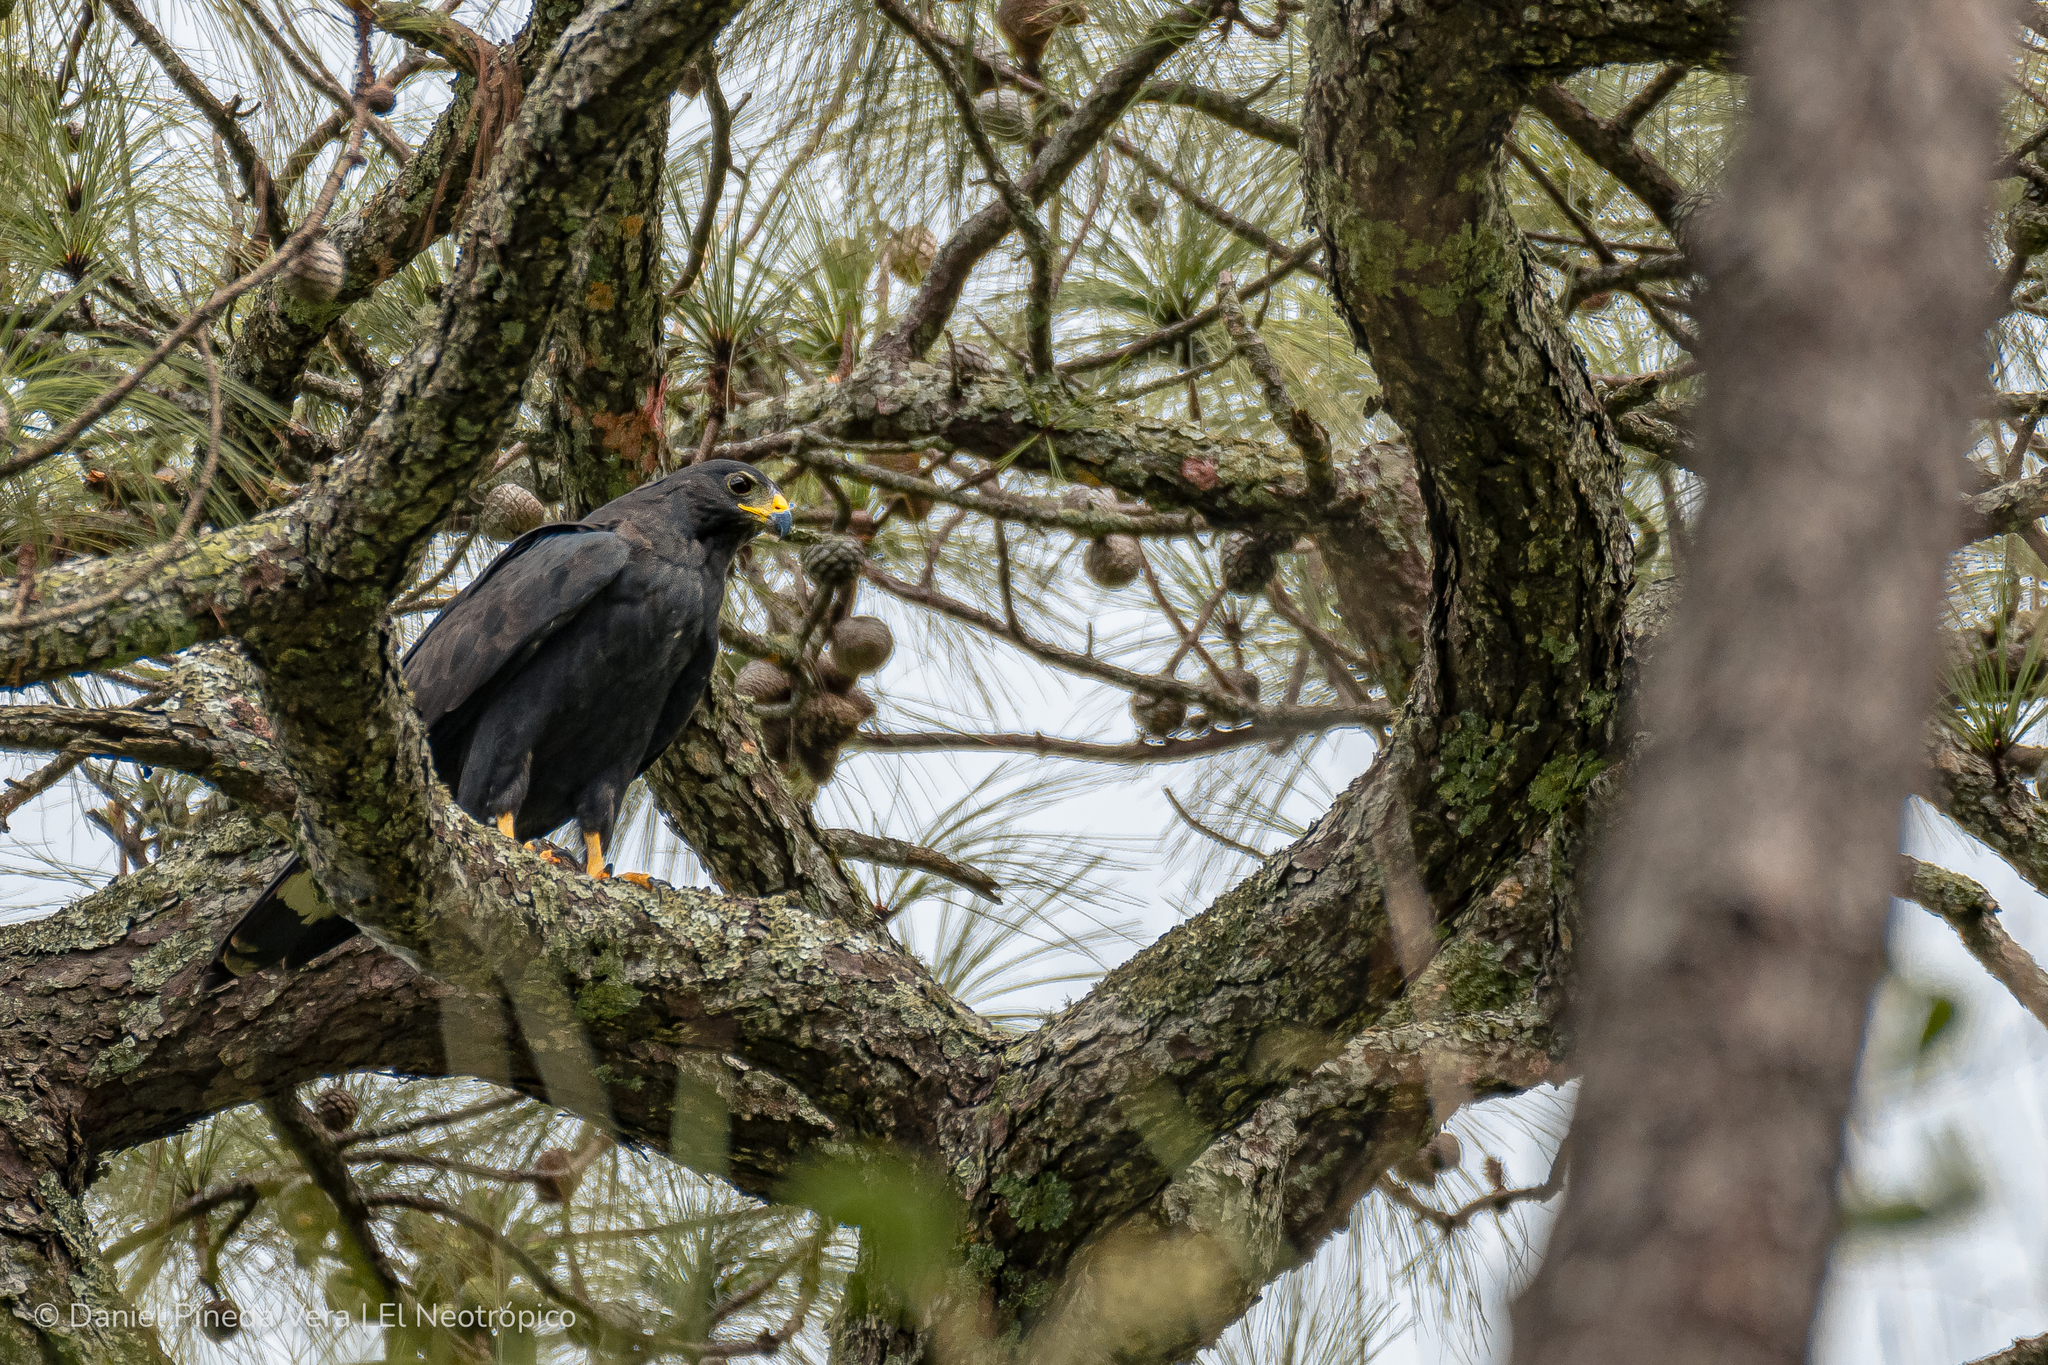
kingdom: Animalia
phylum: Chordata
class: Aves
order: Accipitriformes
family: Accipitridae
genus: Buteo
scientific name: Buteo albonotatus
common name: Zone-tailed hawk
